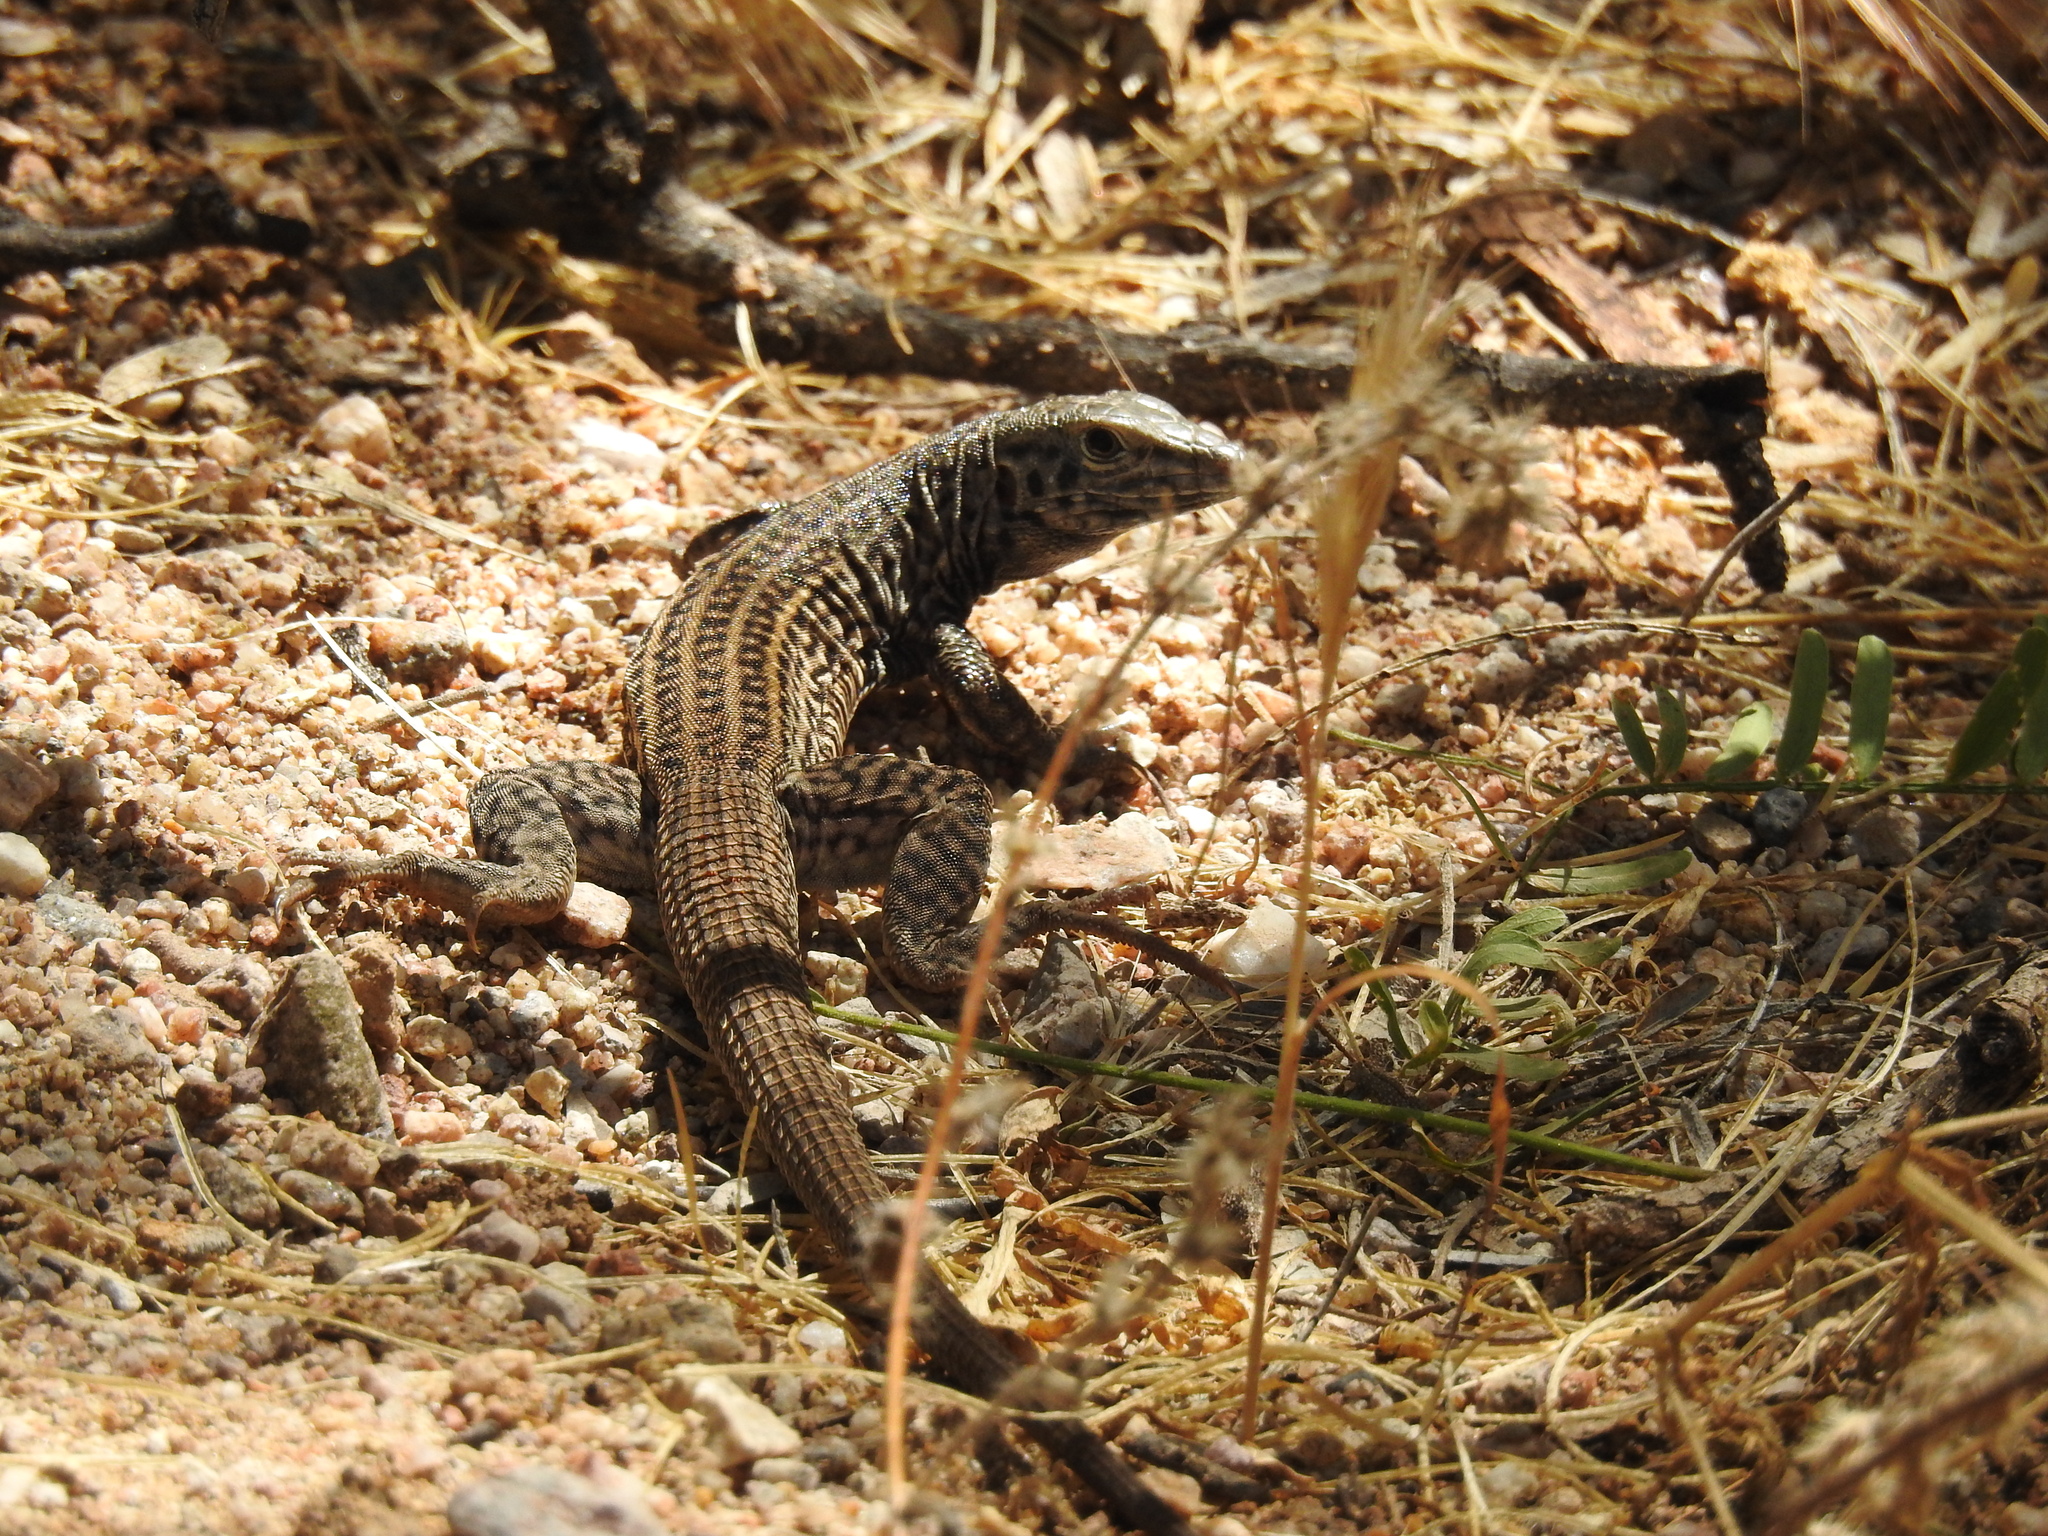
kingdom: Animalia
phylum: Chordata
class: Squamata
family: Teiidae
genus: Aspidoscelis
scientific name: Aspidoscelis tigris
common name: Tiger whiptail
